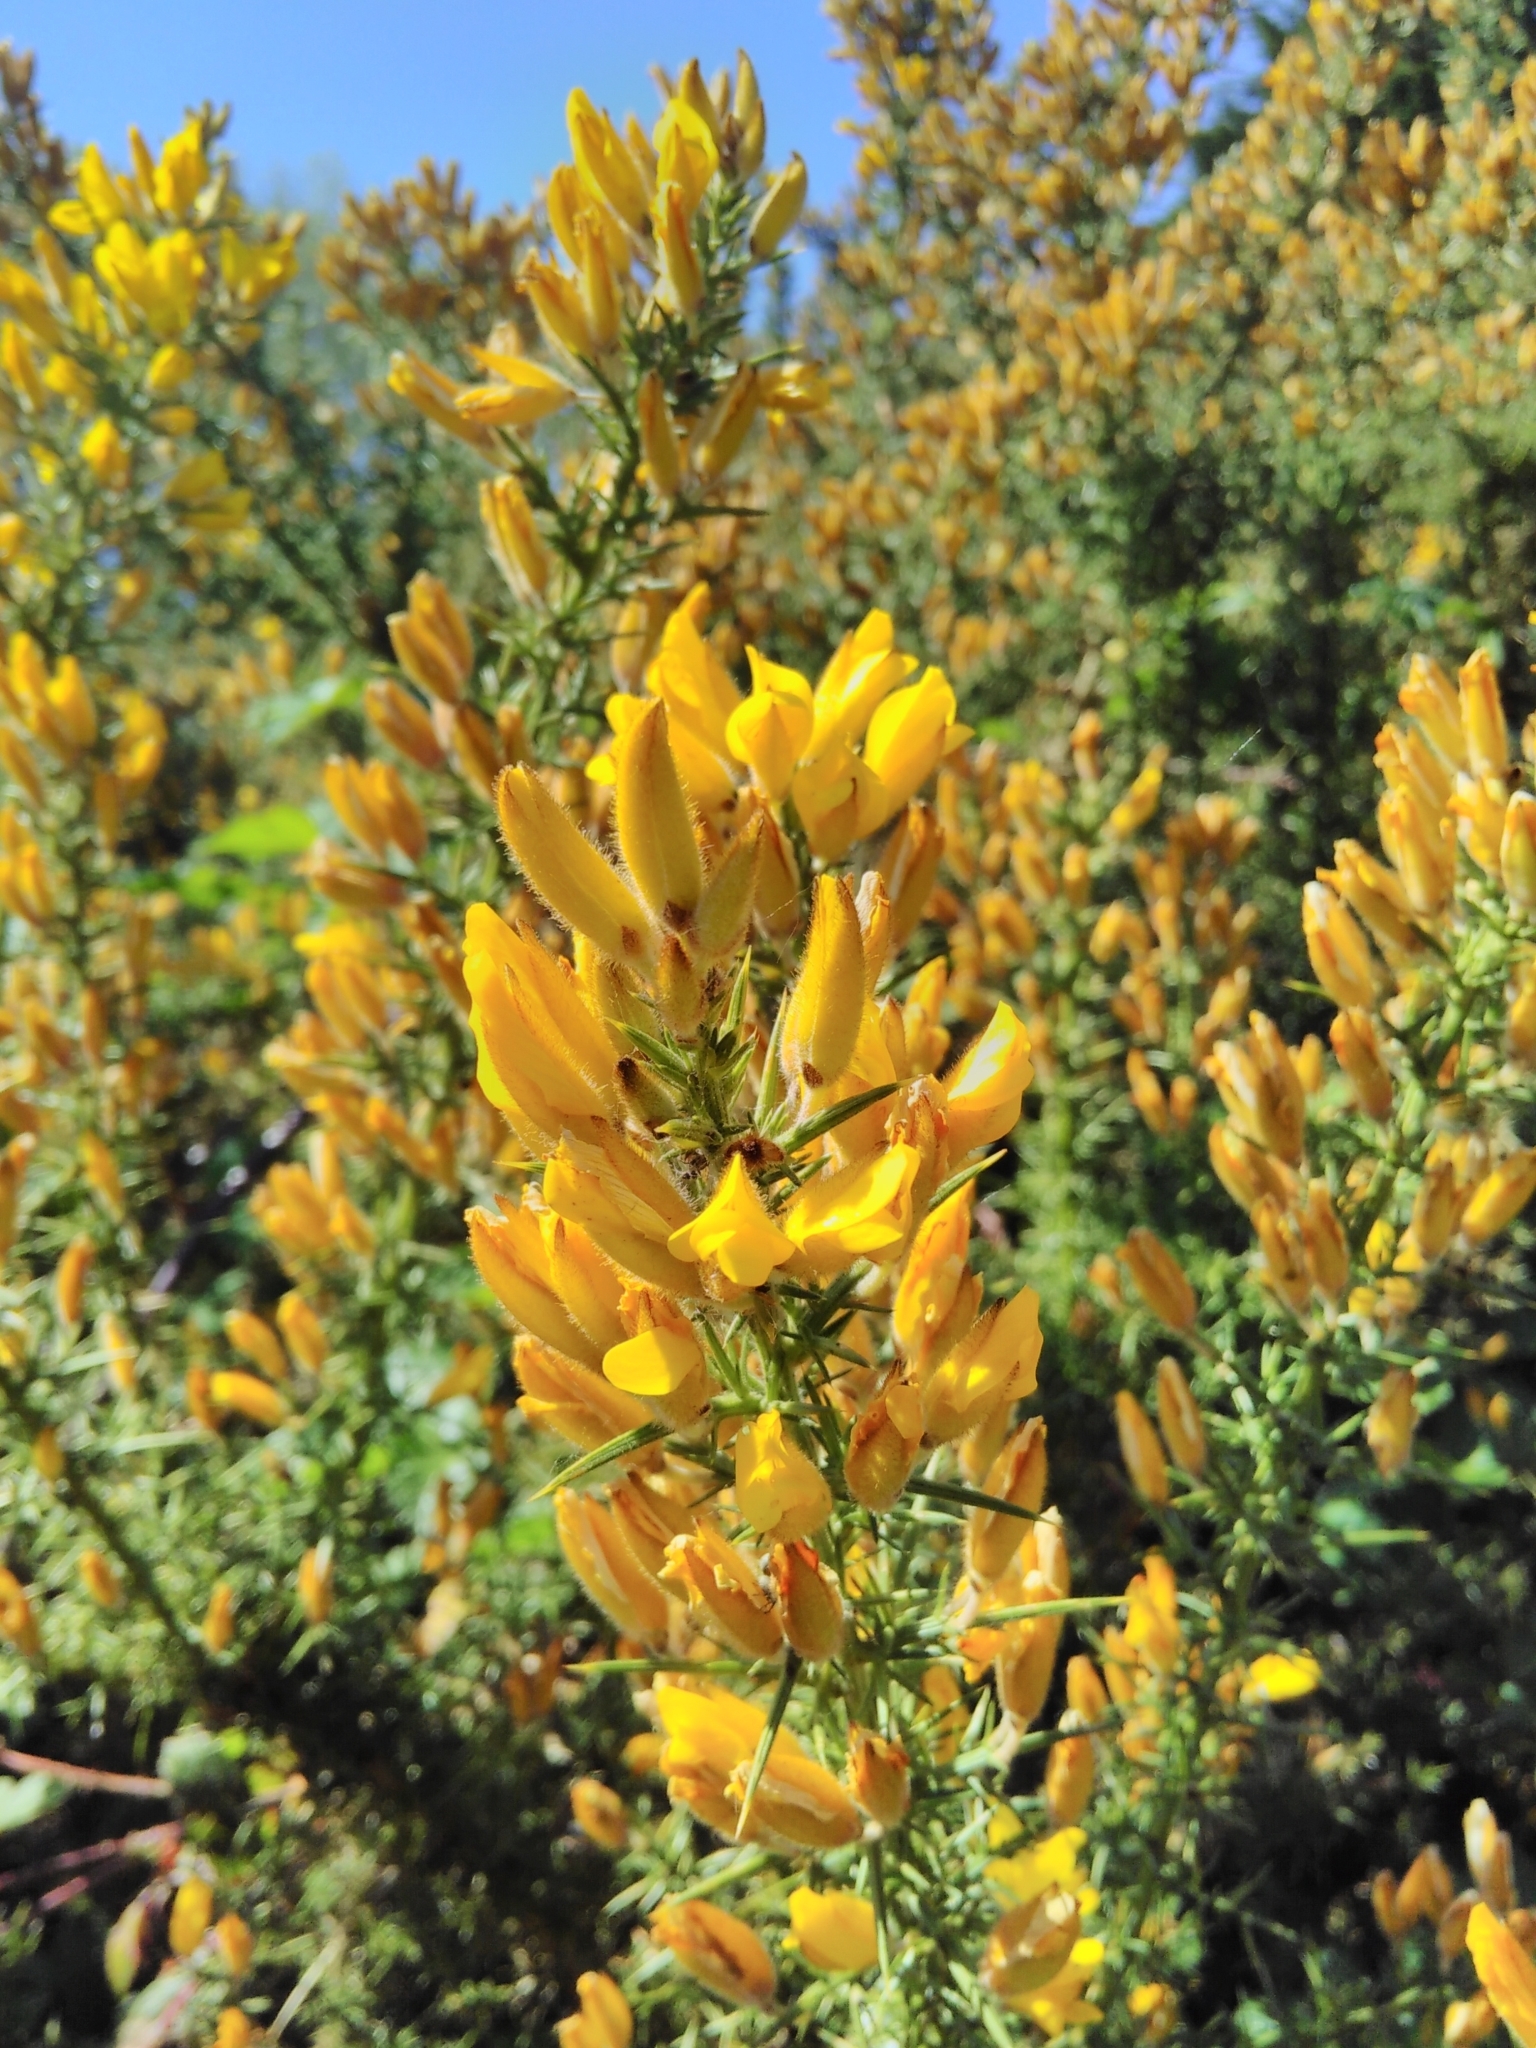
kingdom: Plantae
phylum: Tracheophyta
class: Magnoliopsida
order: Fabales
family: Fabaceae
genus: Ulex
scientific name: Ulex europaeus
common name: Common gorse
